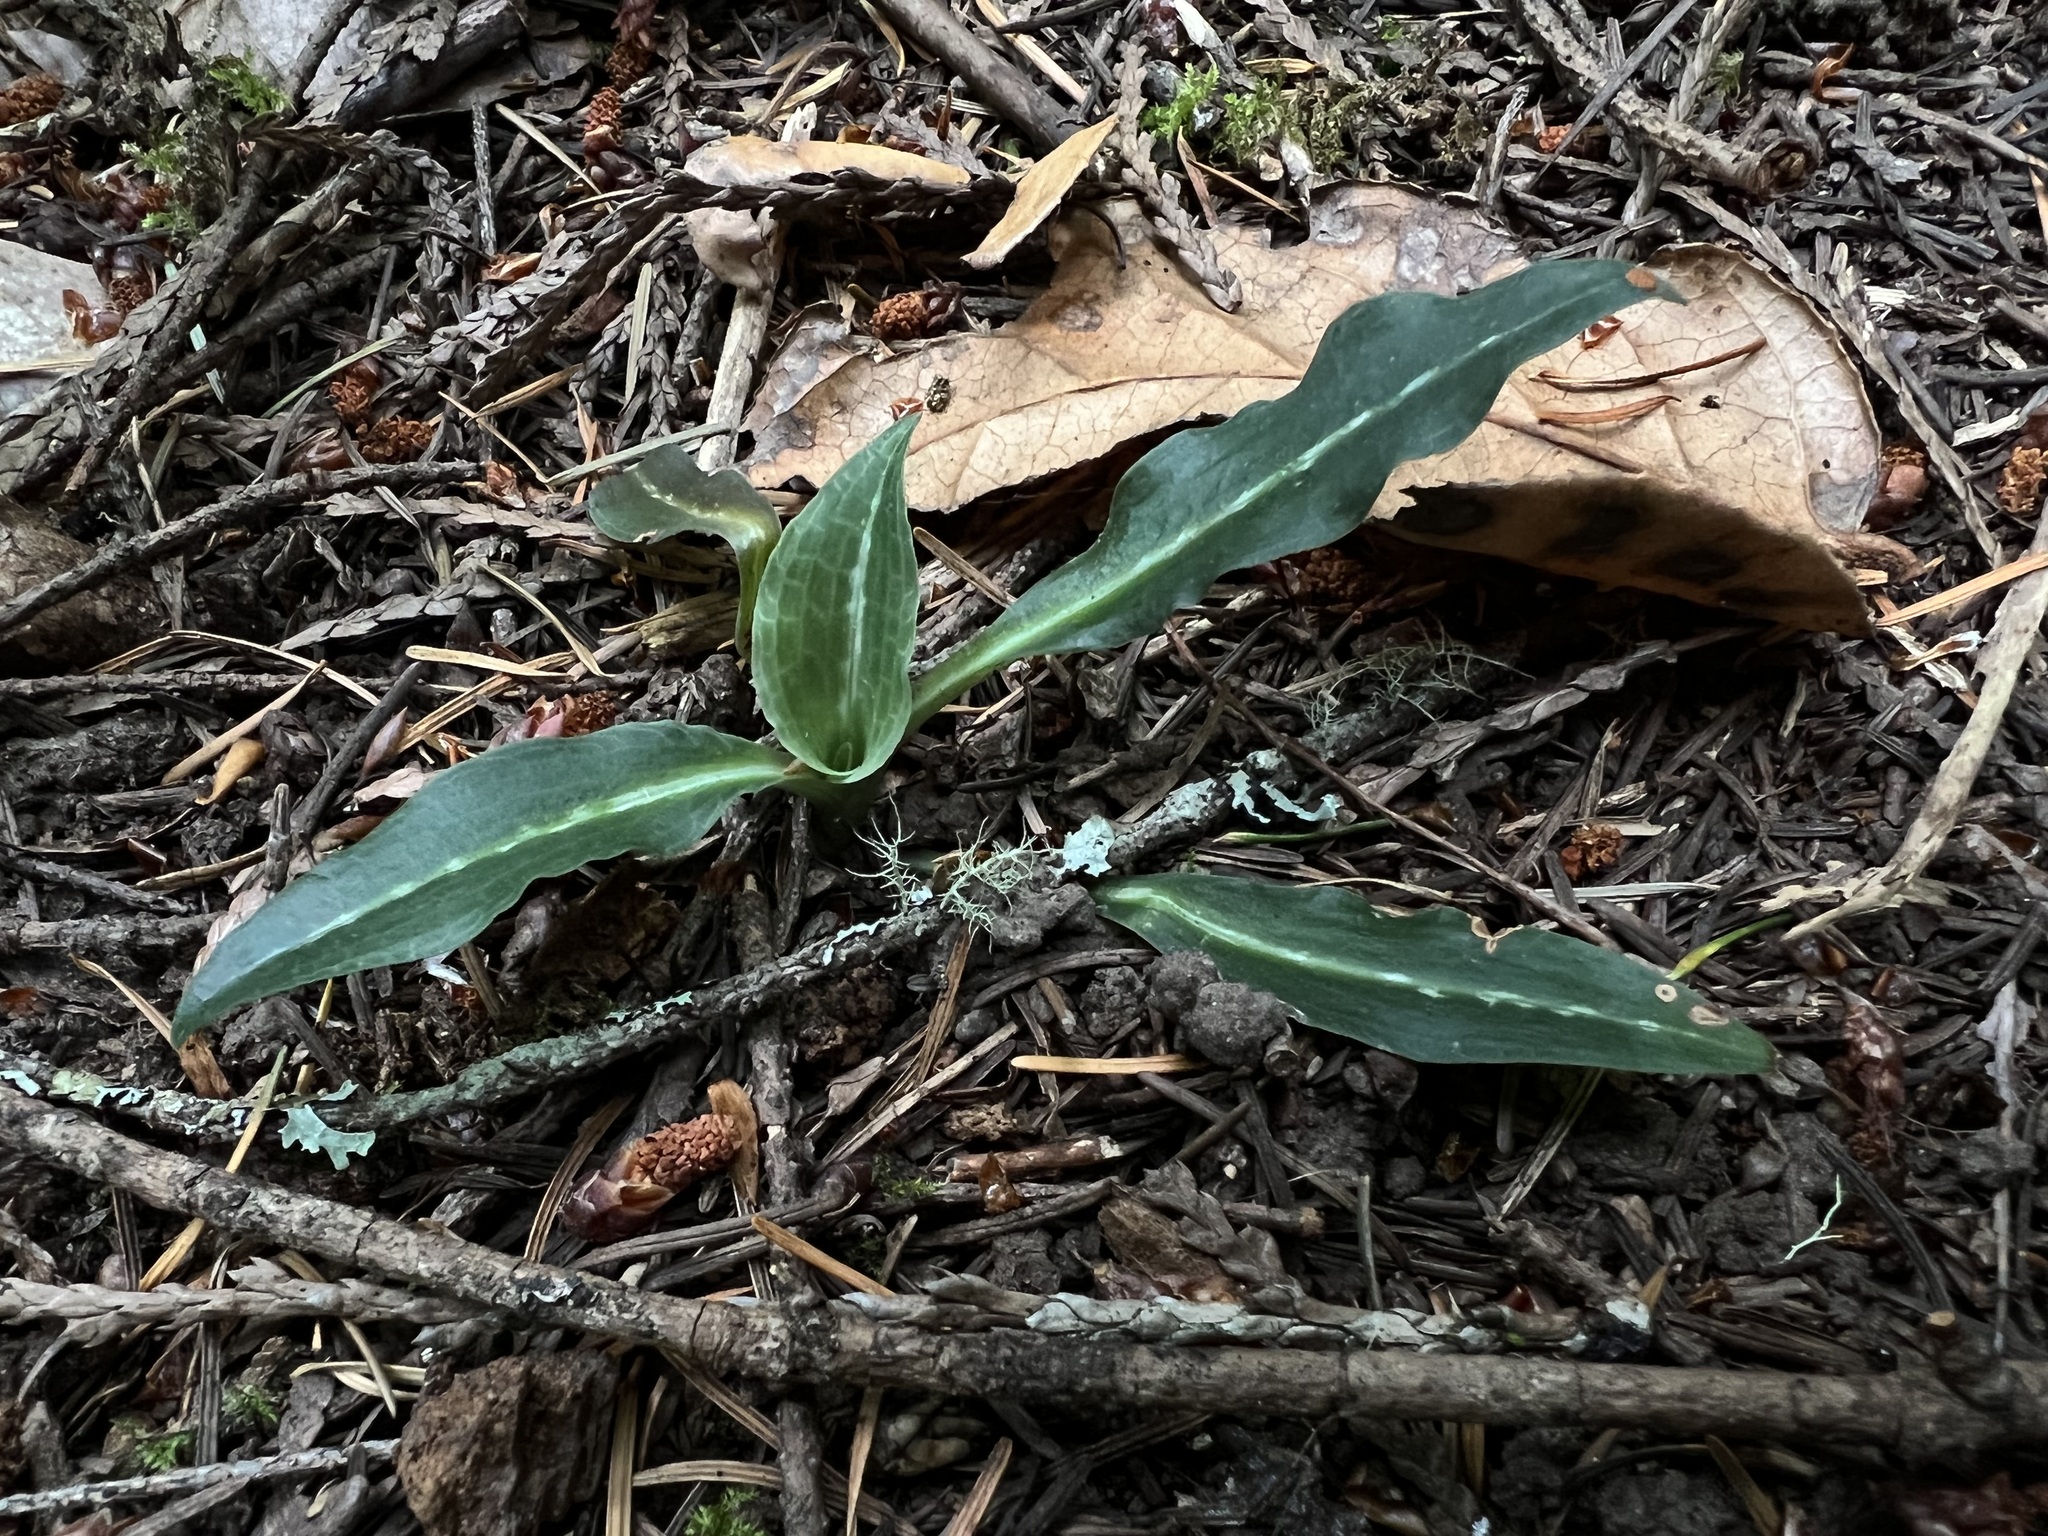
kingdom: Plantae
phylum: Tracheophyta
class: Liliopsida
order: Asparagales
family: Orchidaceae
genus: Goodyera
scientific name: Goodyera oblongifolia
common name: Giant rattlesnake-plantain
